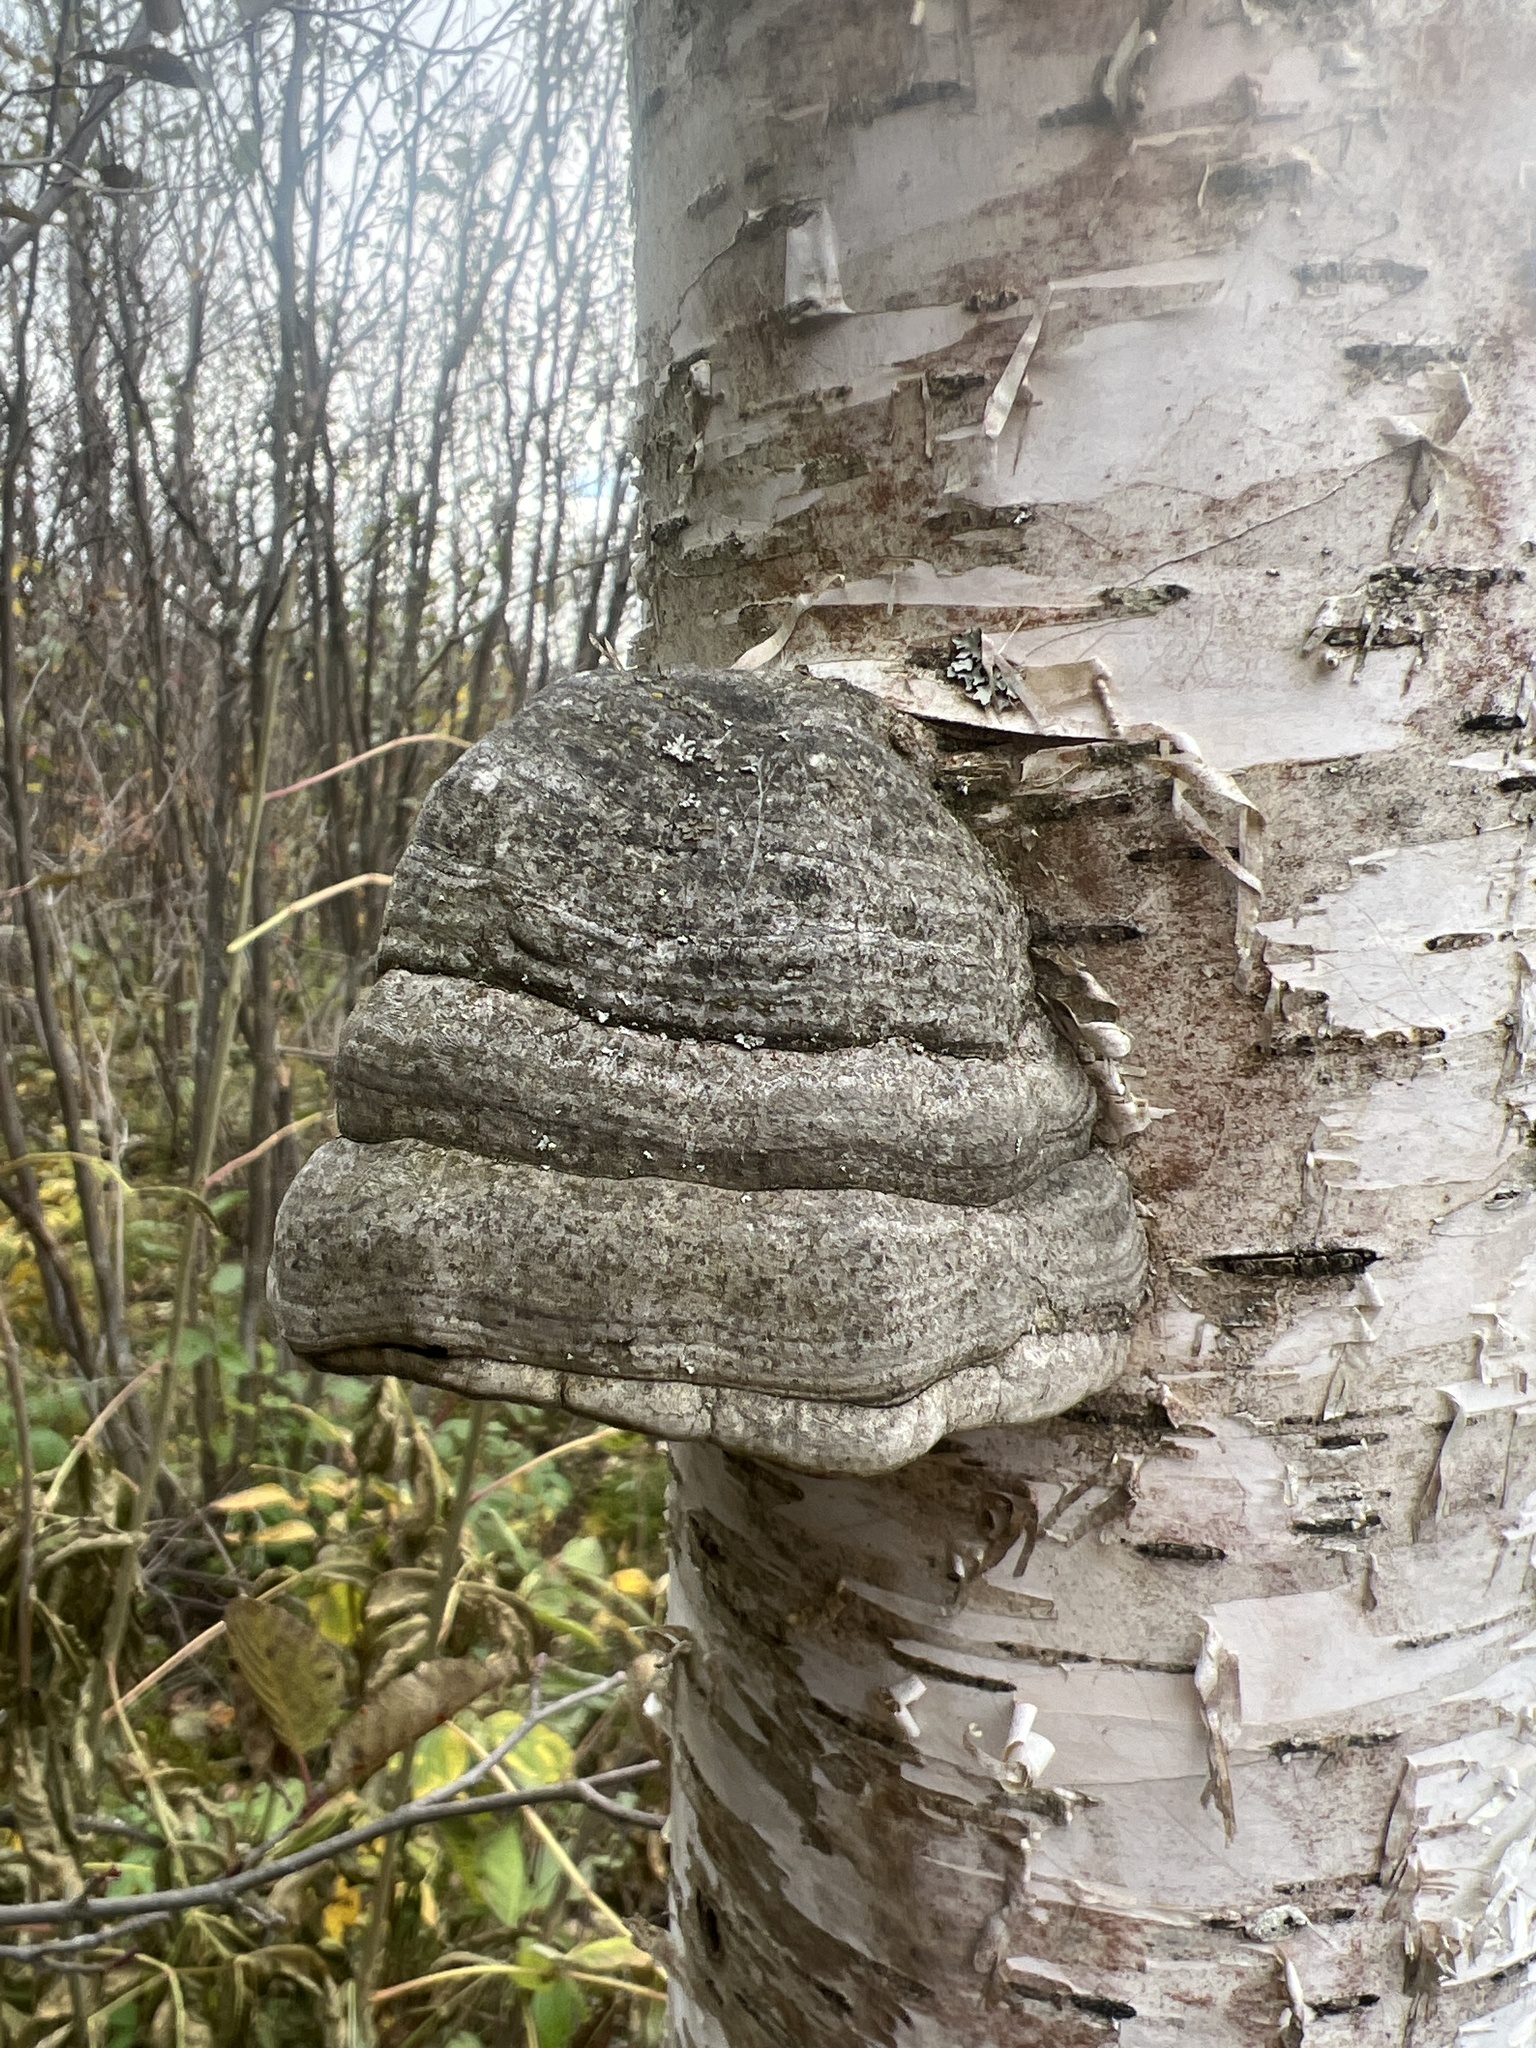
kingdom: Fungi
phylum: Basidiomycota
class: Agaricomycetes
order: Polyporales
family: Polyporaceae
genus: Fomes
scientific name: Fomes fomentarius
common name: Hoof fungus
